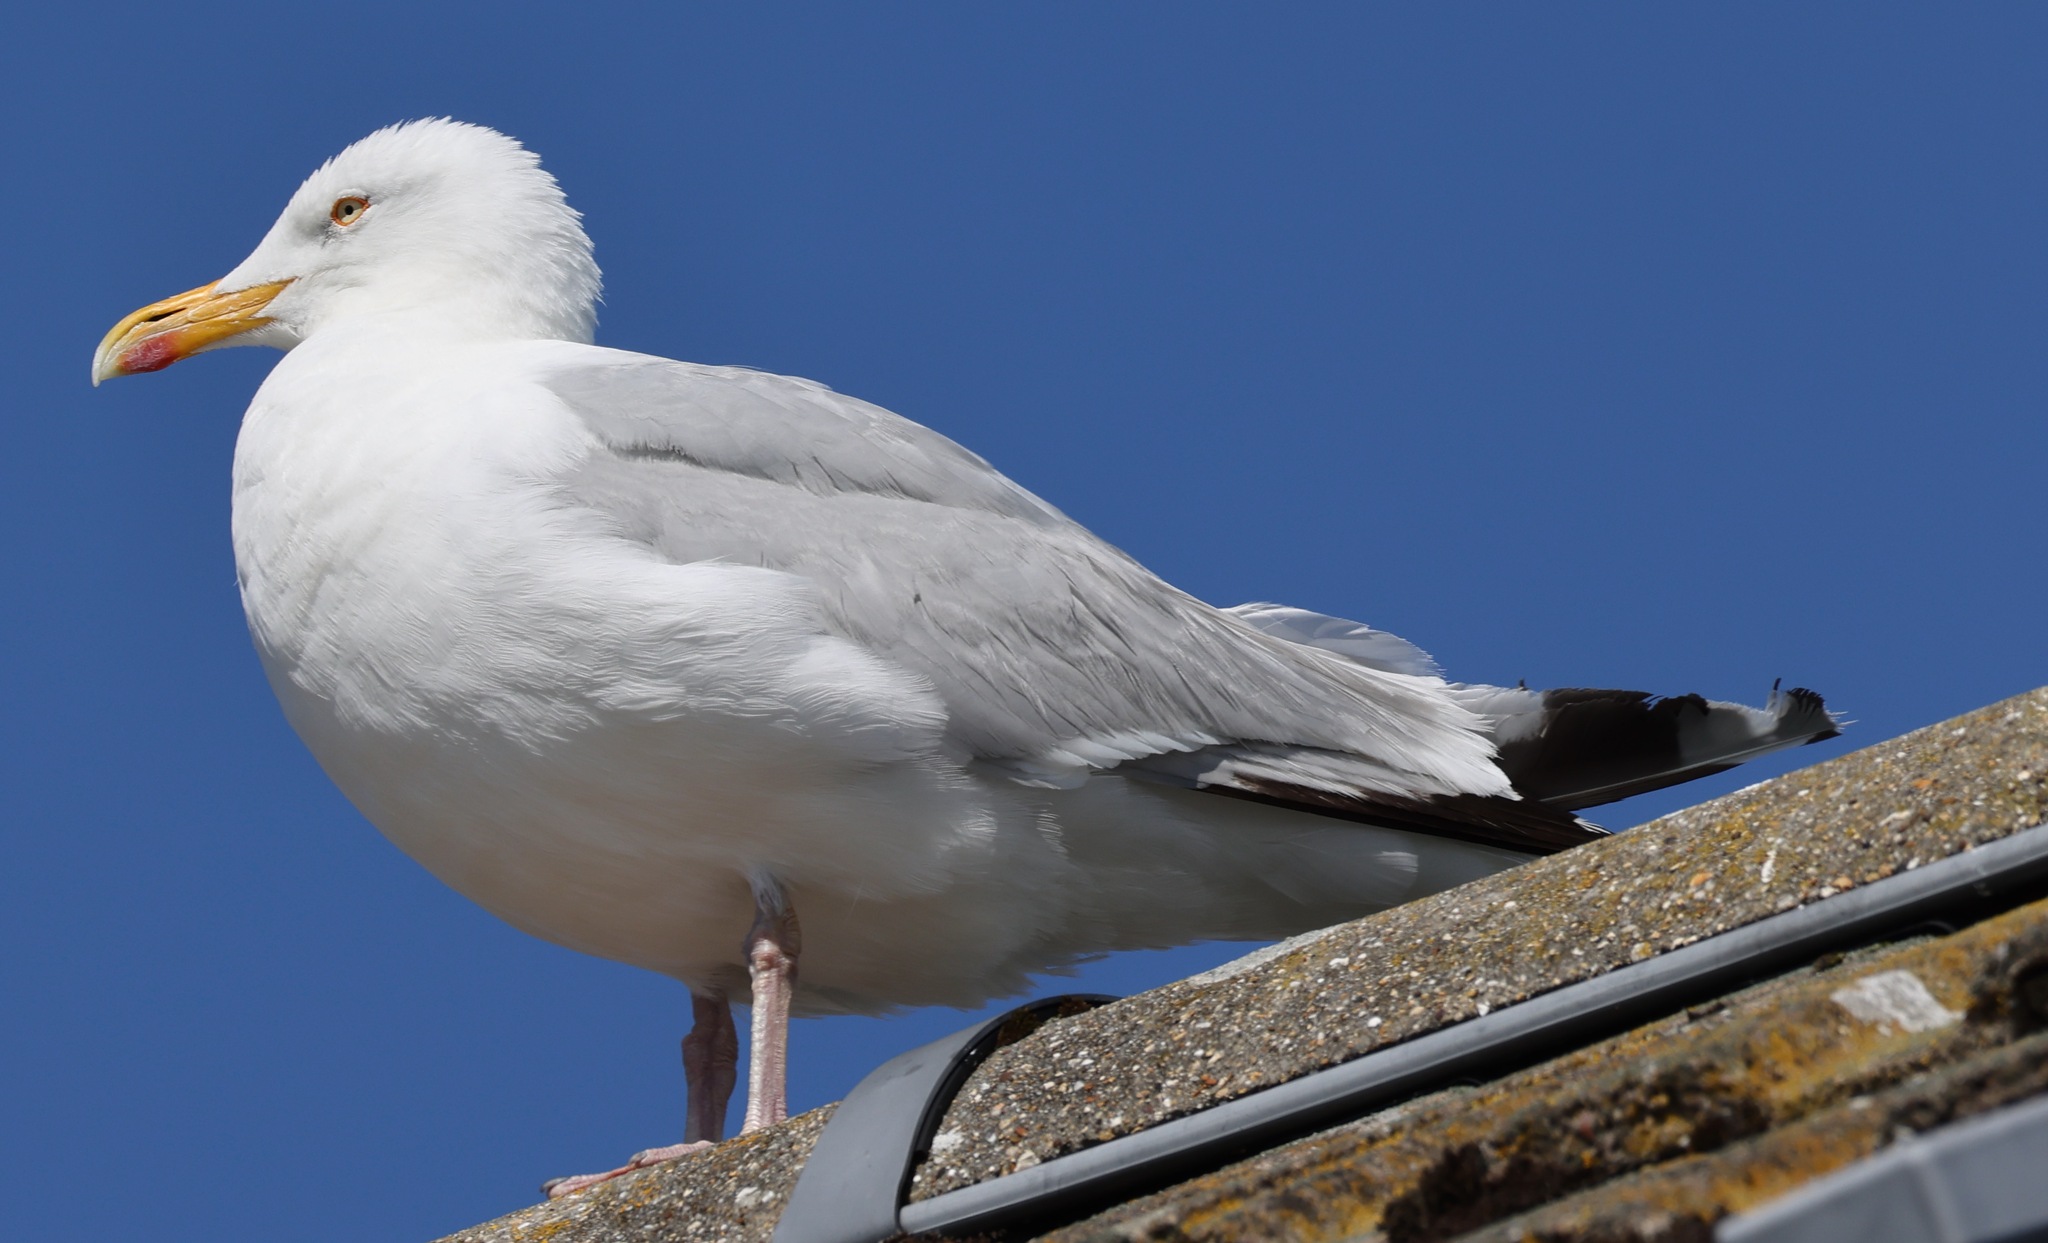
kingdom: Animalia
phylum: Chordata
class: Aves
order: Charadriiformes
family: Laridae
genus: Larus
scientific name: Larus argentatus
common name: Herring gull
